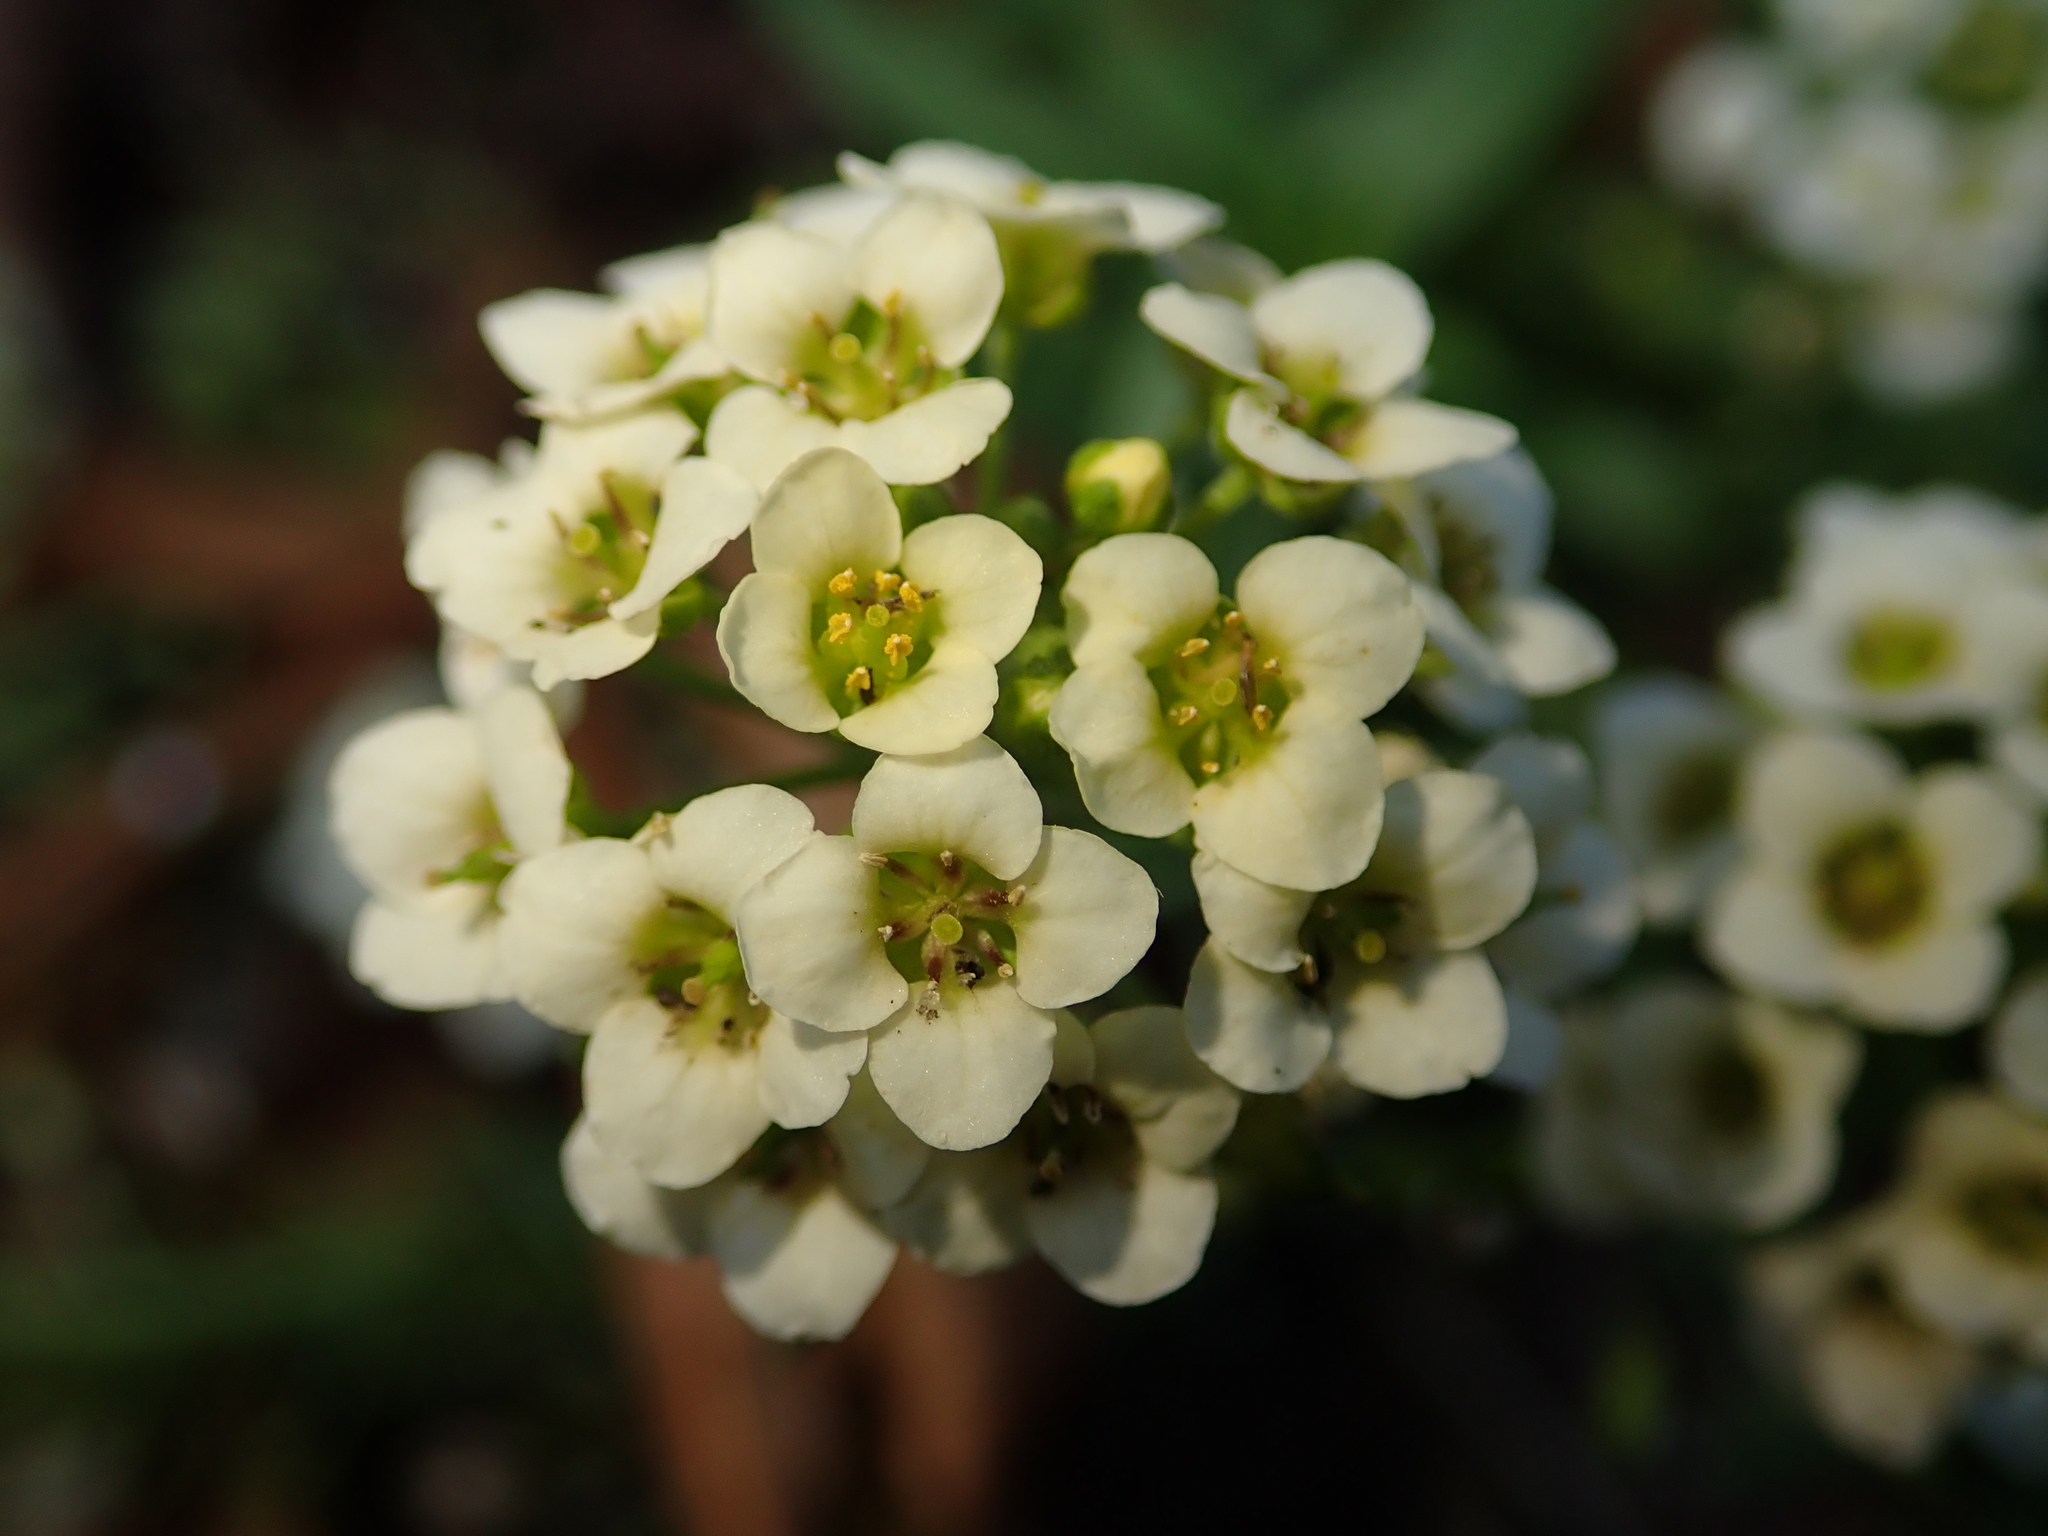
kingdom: Plantae
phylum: Tracheophyta
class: Magnoliopsida
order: Brassicales
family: Brassicaceae
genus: Lobularia
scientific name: Lobularia maritima
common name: Sweet alison
